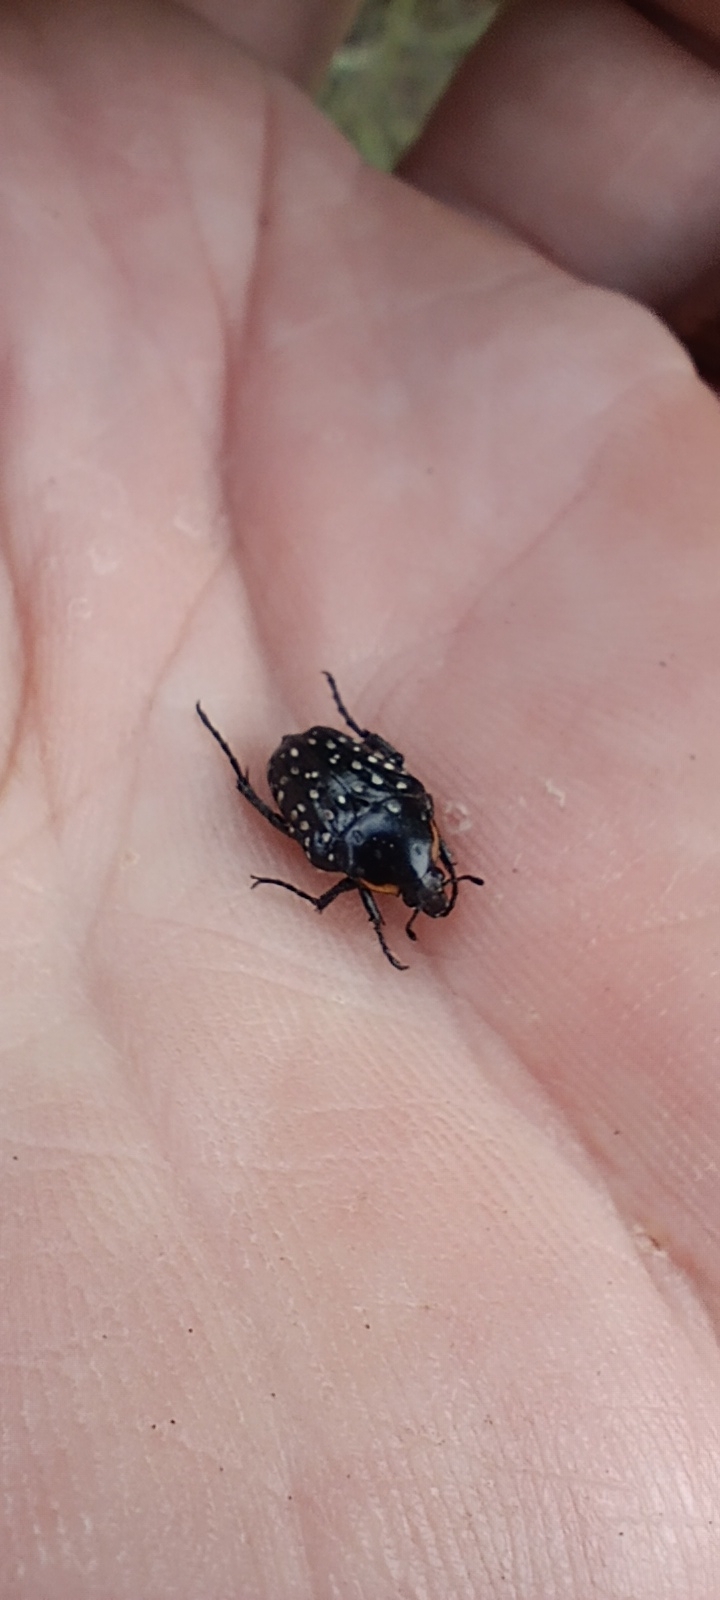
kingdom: Animalia
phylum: Arthropoda
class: Insecta
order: Coleoptera
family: Scarabaeidae
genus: Oxythyrea
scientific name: Oxythyrea
